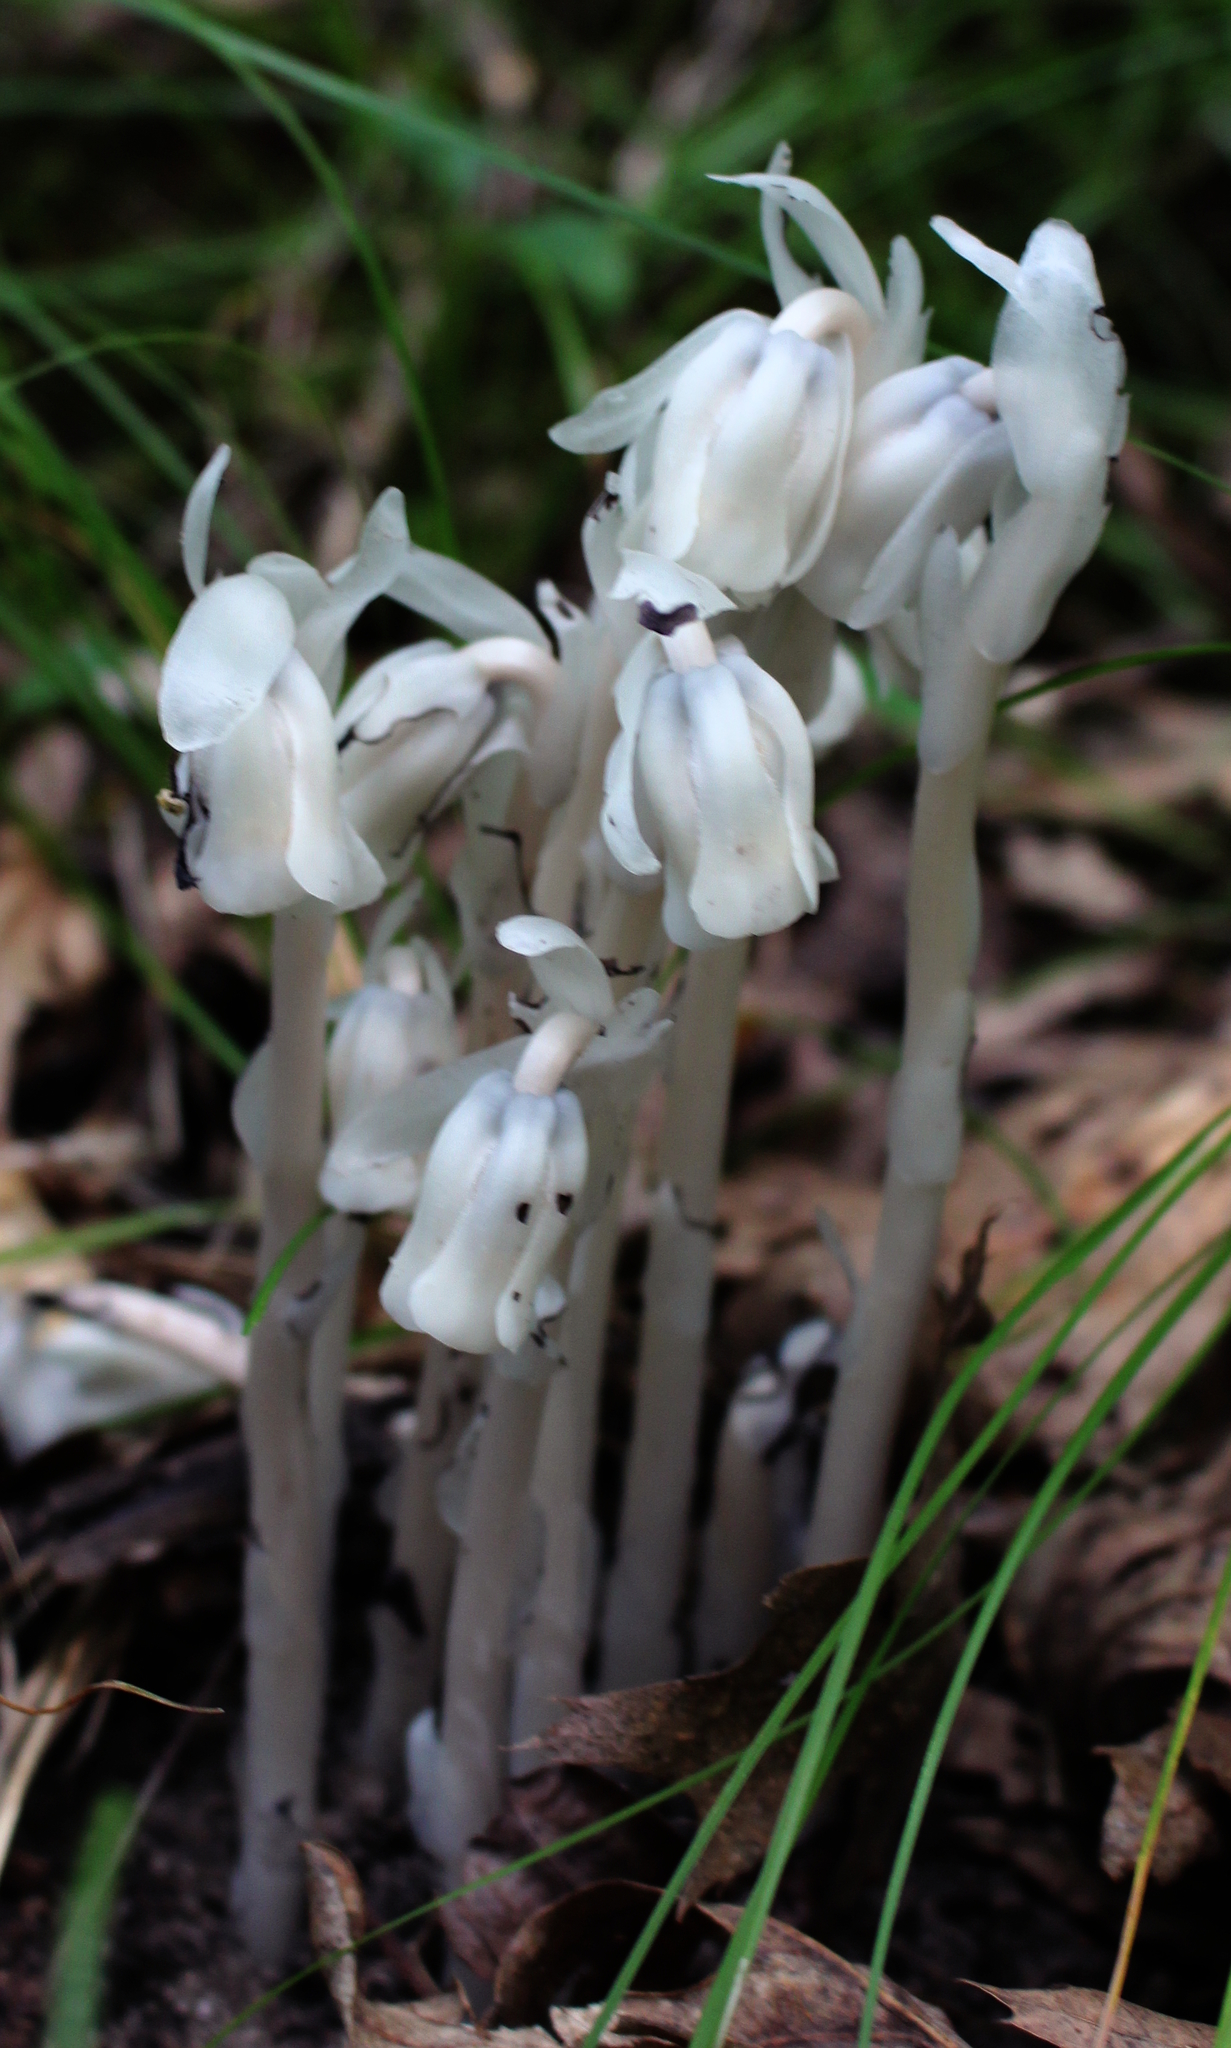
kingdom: Plantae
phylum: Tracheophyta
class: Magnoliopsida
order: Ericales
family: Ericaceae
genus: Monotropa
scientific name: Monotropa uniflora
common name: Convulsion root
